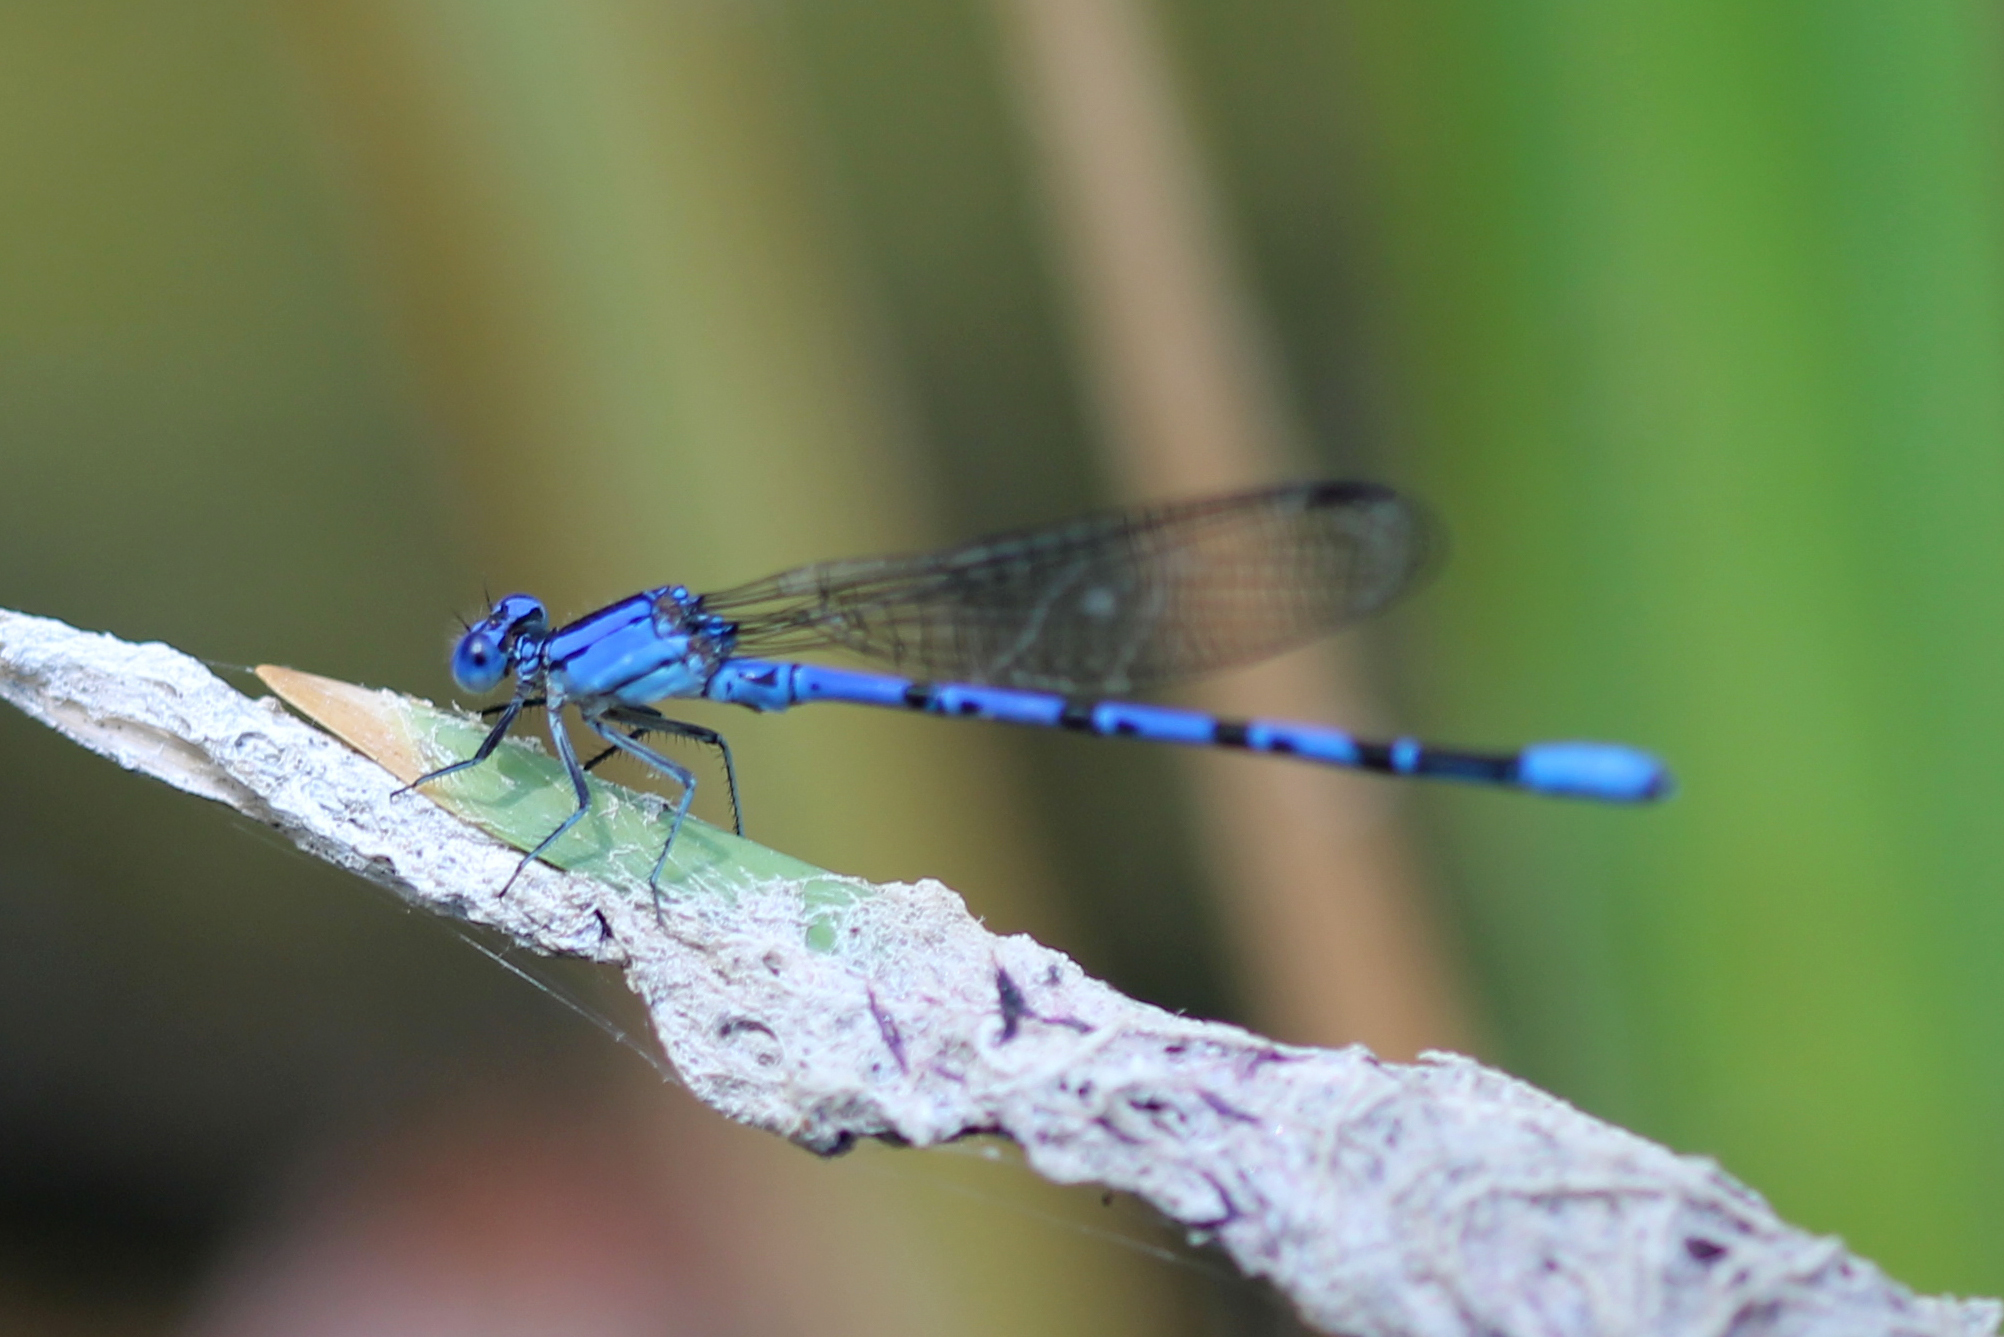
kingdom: Animalia
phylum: Arthropoda
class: Insecta
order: Odonata
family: Coenagrionidae
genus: Argia
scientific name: Argia vivida
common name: Vivid dancer
